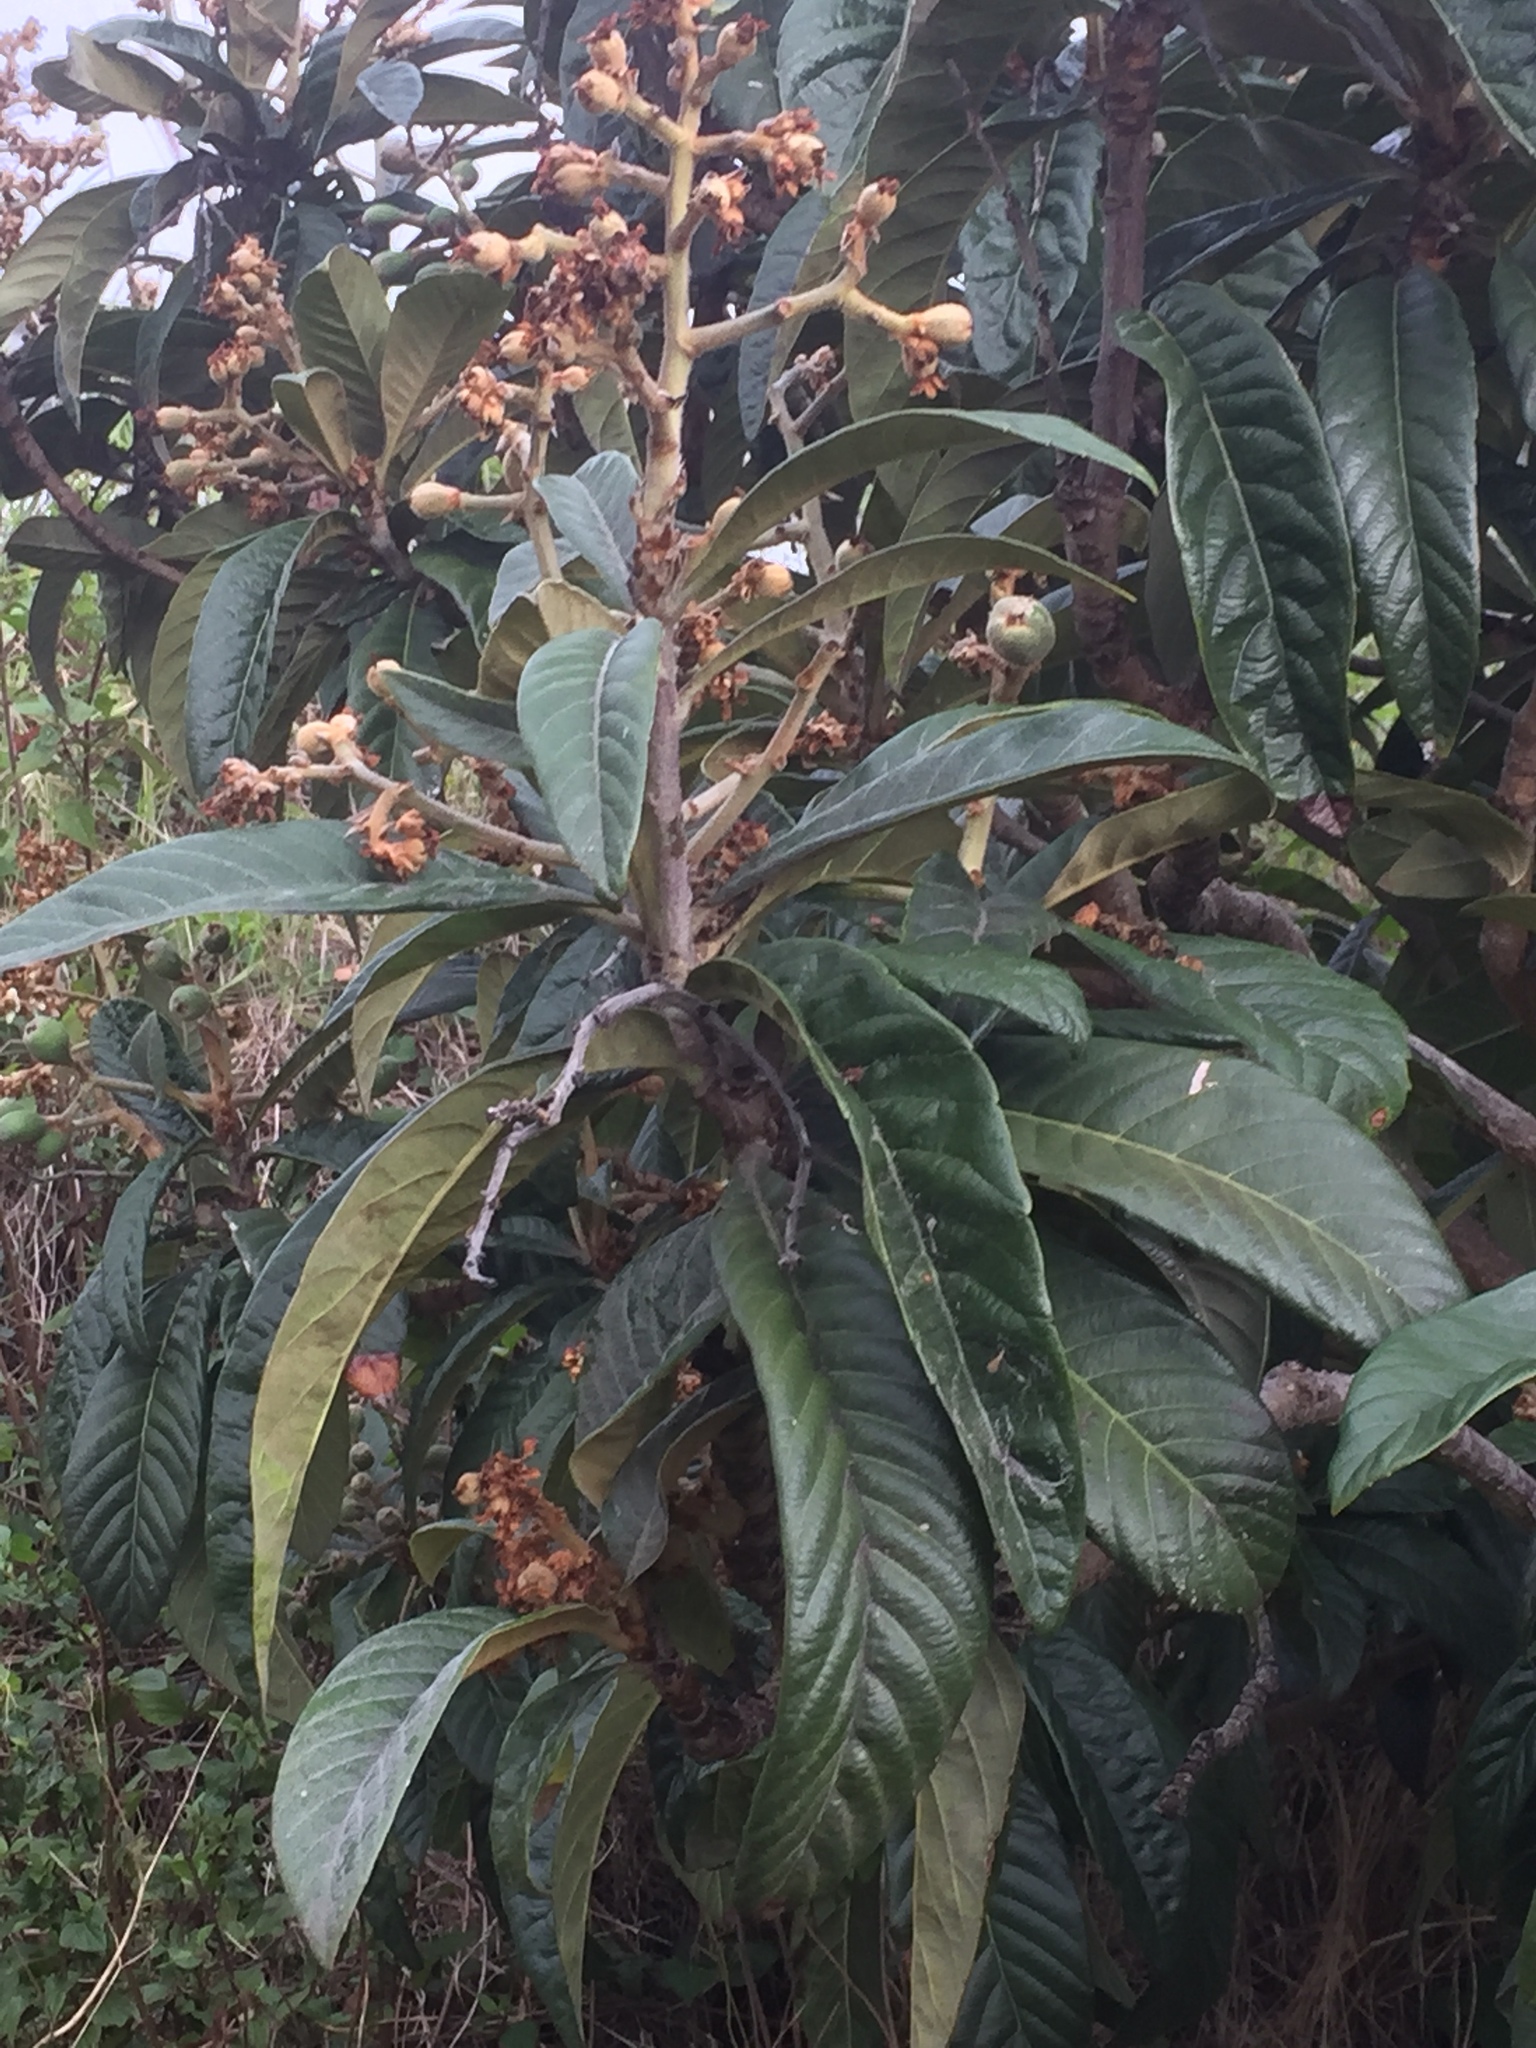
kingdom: Plantae
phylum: Tracheophyta
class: Magnoliopsida
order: Rosales
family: Rosaceae
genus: Rhaphiolepis
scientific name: Rhaphiolepis bibas
